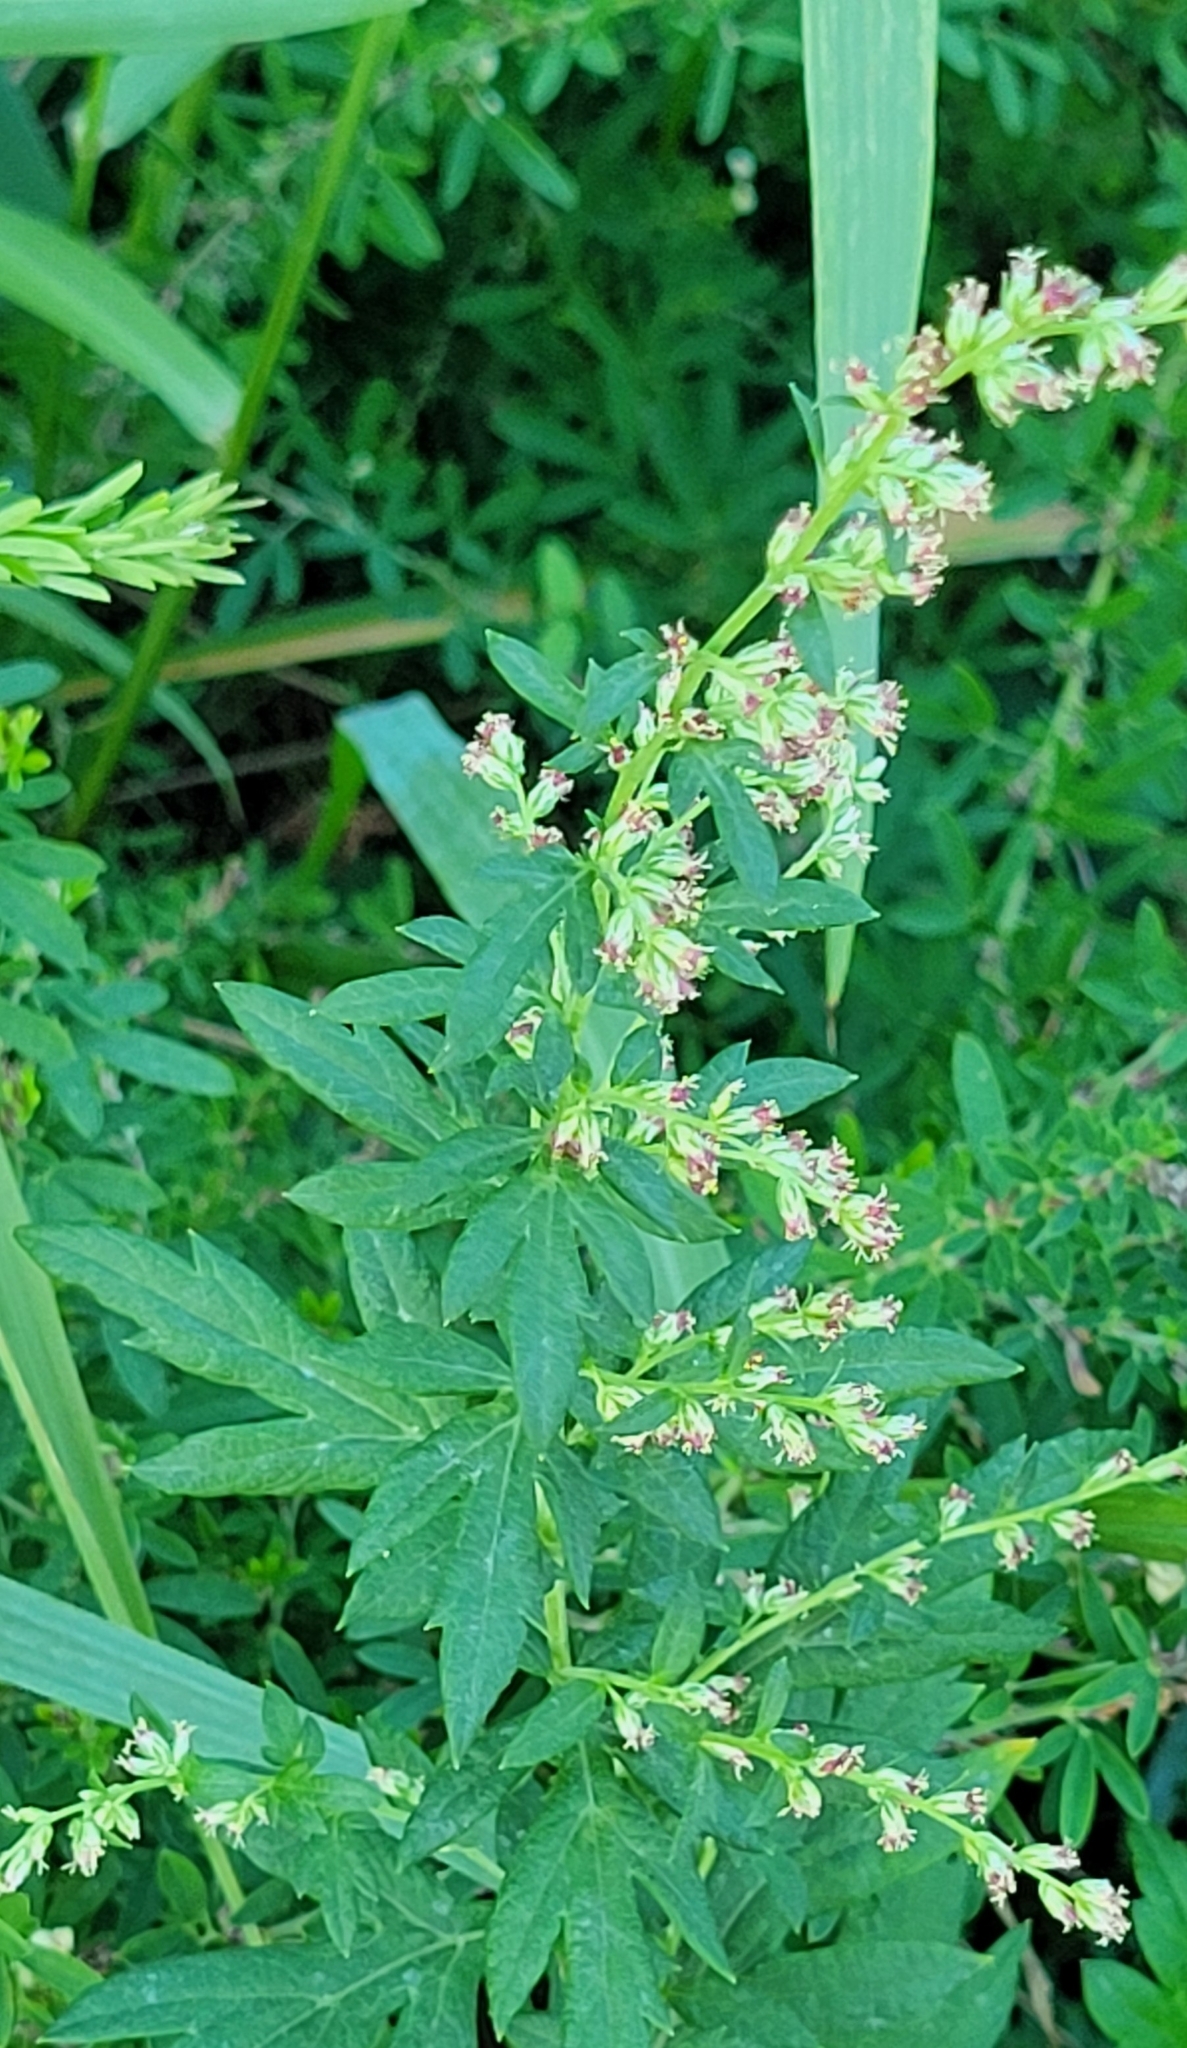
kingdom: Plantae
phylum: Tracheophyta
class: Magnoliopsida
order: Asterales
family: Asteraceae
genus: Artemisia
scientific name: Artemisia vulgaris
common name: Mugwort
